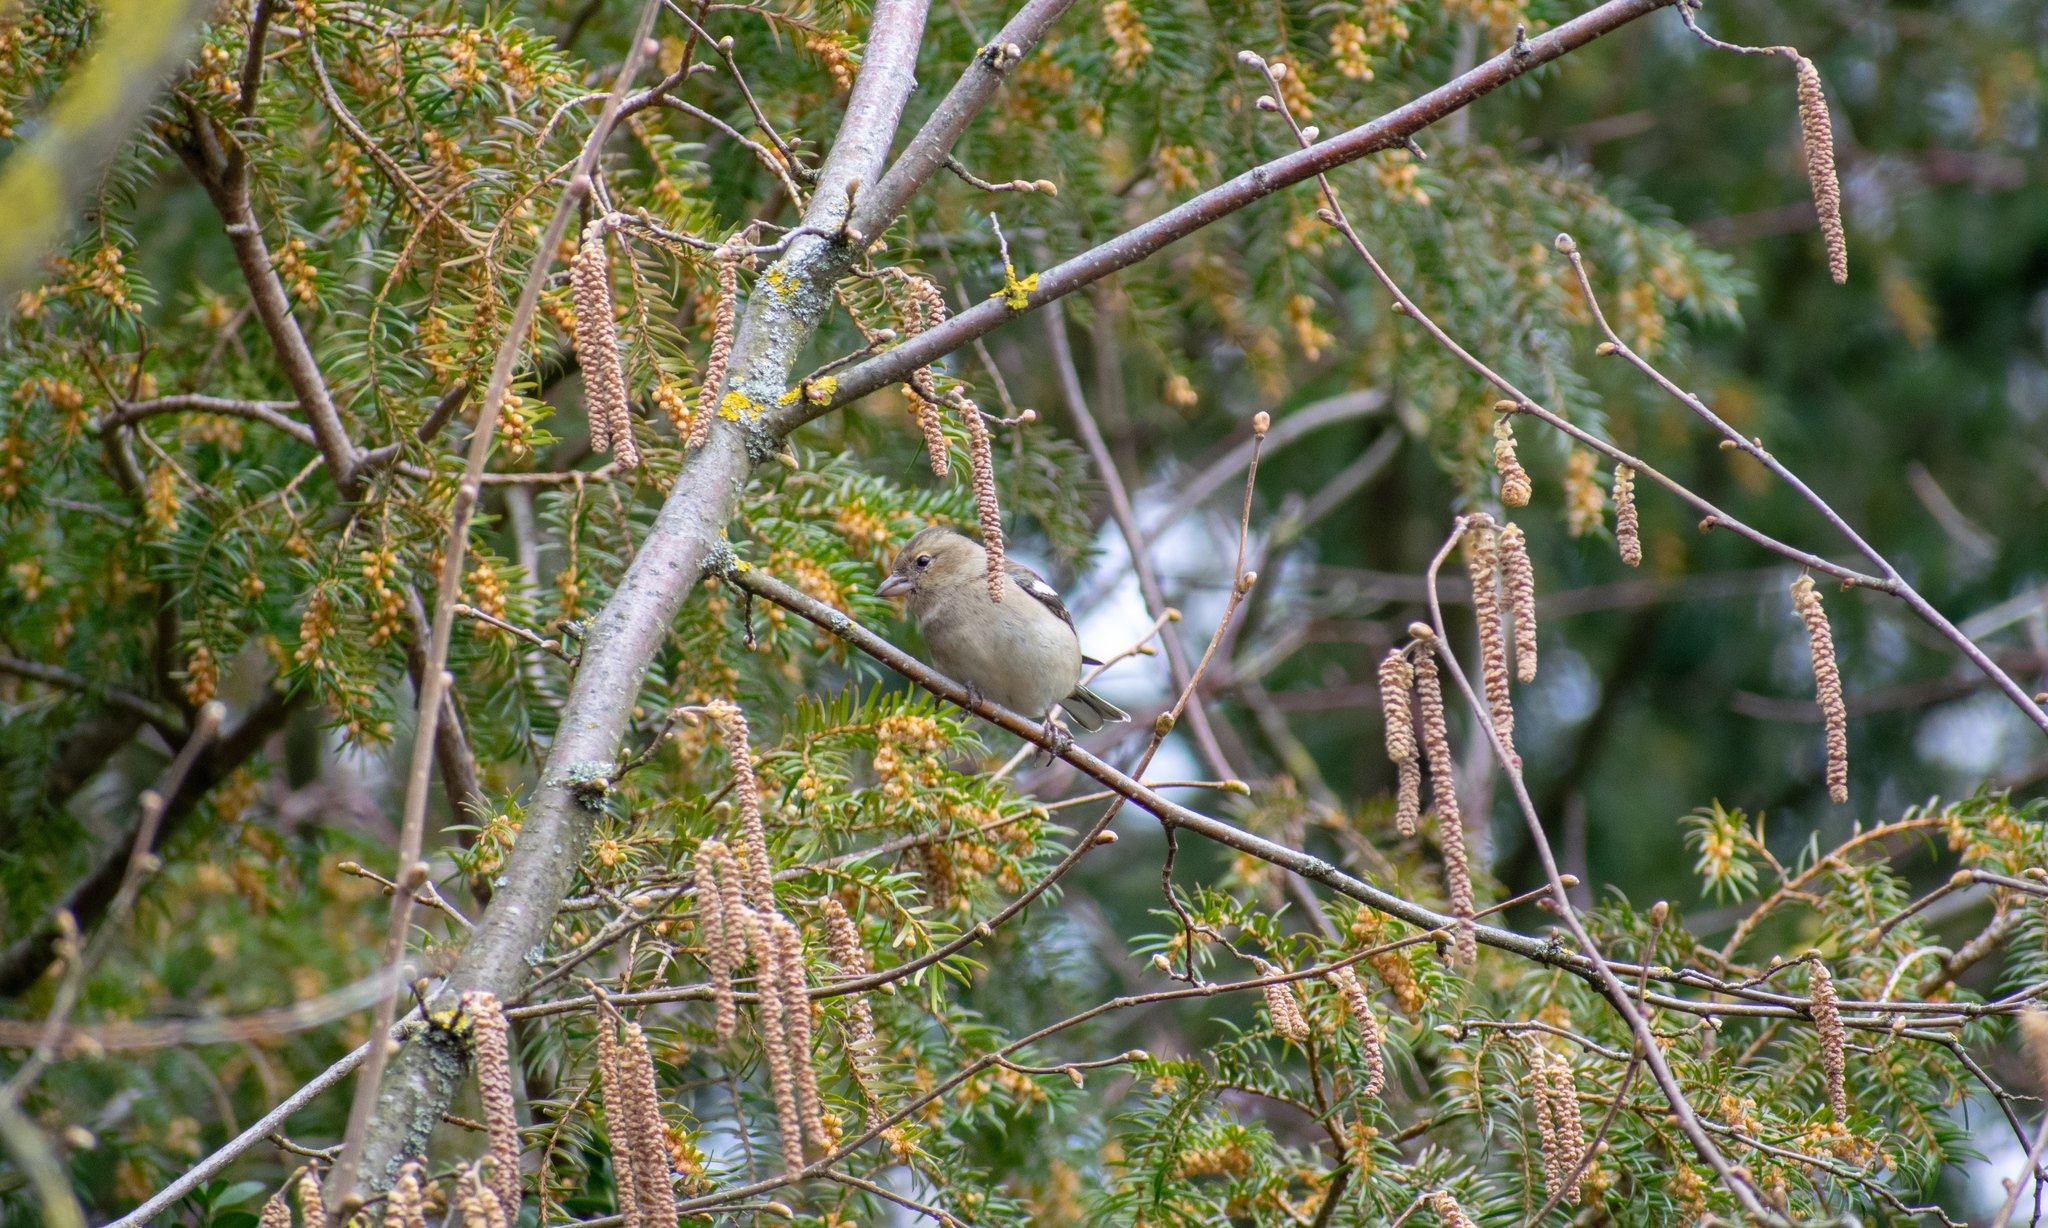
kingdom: Animalia
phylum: Chordata
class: Aves
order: Passeriformes
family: Fringillidae
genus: Fringilla
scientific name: Fringilla coelebs
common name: Common chaffinch
